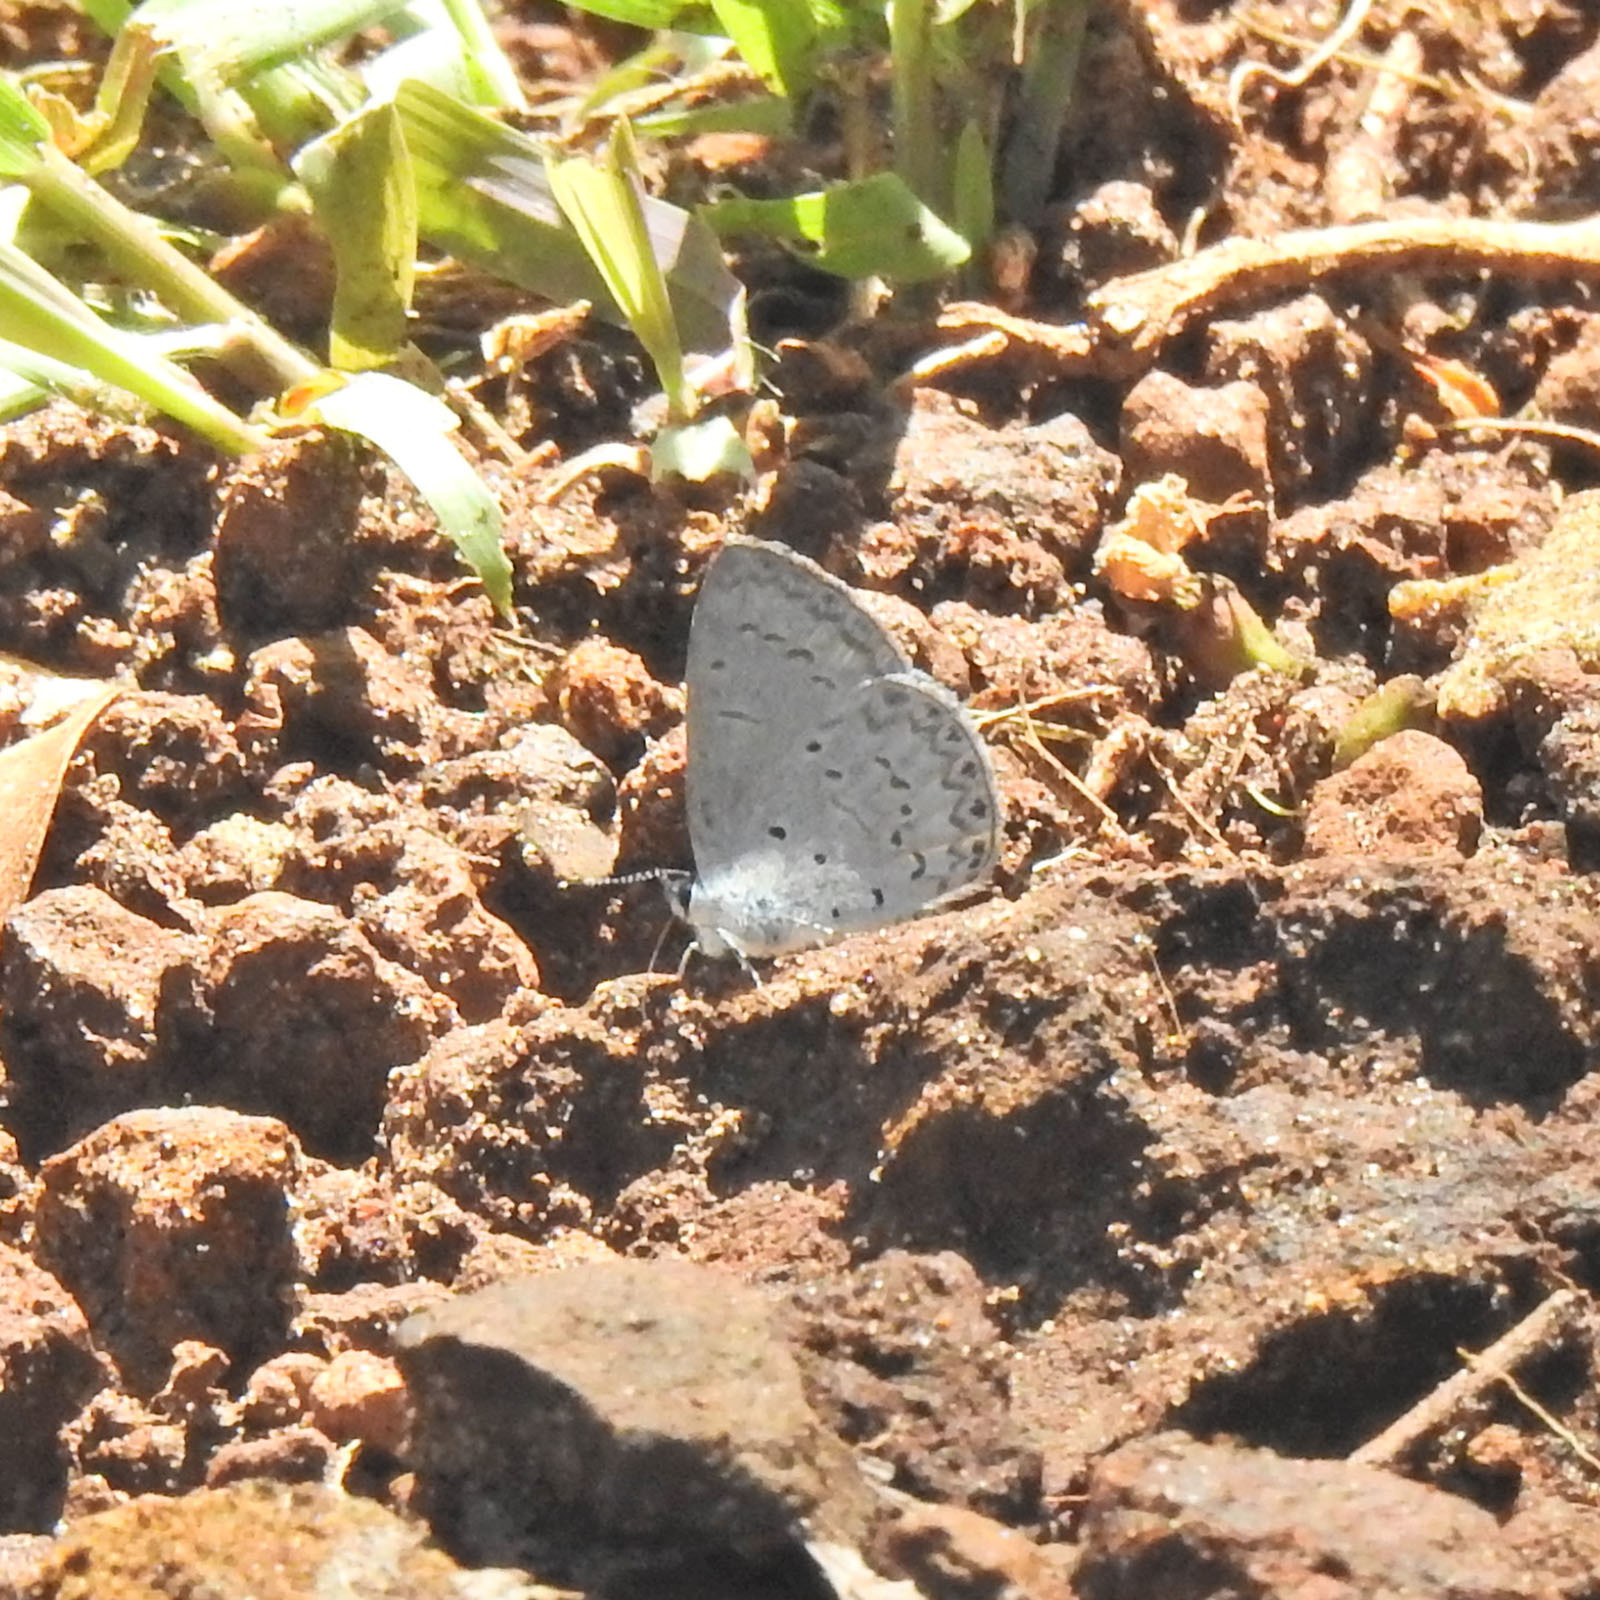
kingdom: Animalia
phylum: Arthropoda
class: Insecta
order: Lepidoptera
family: Lycaenidae
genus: Celastrina
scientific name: Celastrina lavendularis
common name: Plain hedge blue
